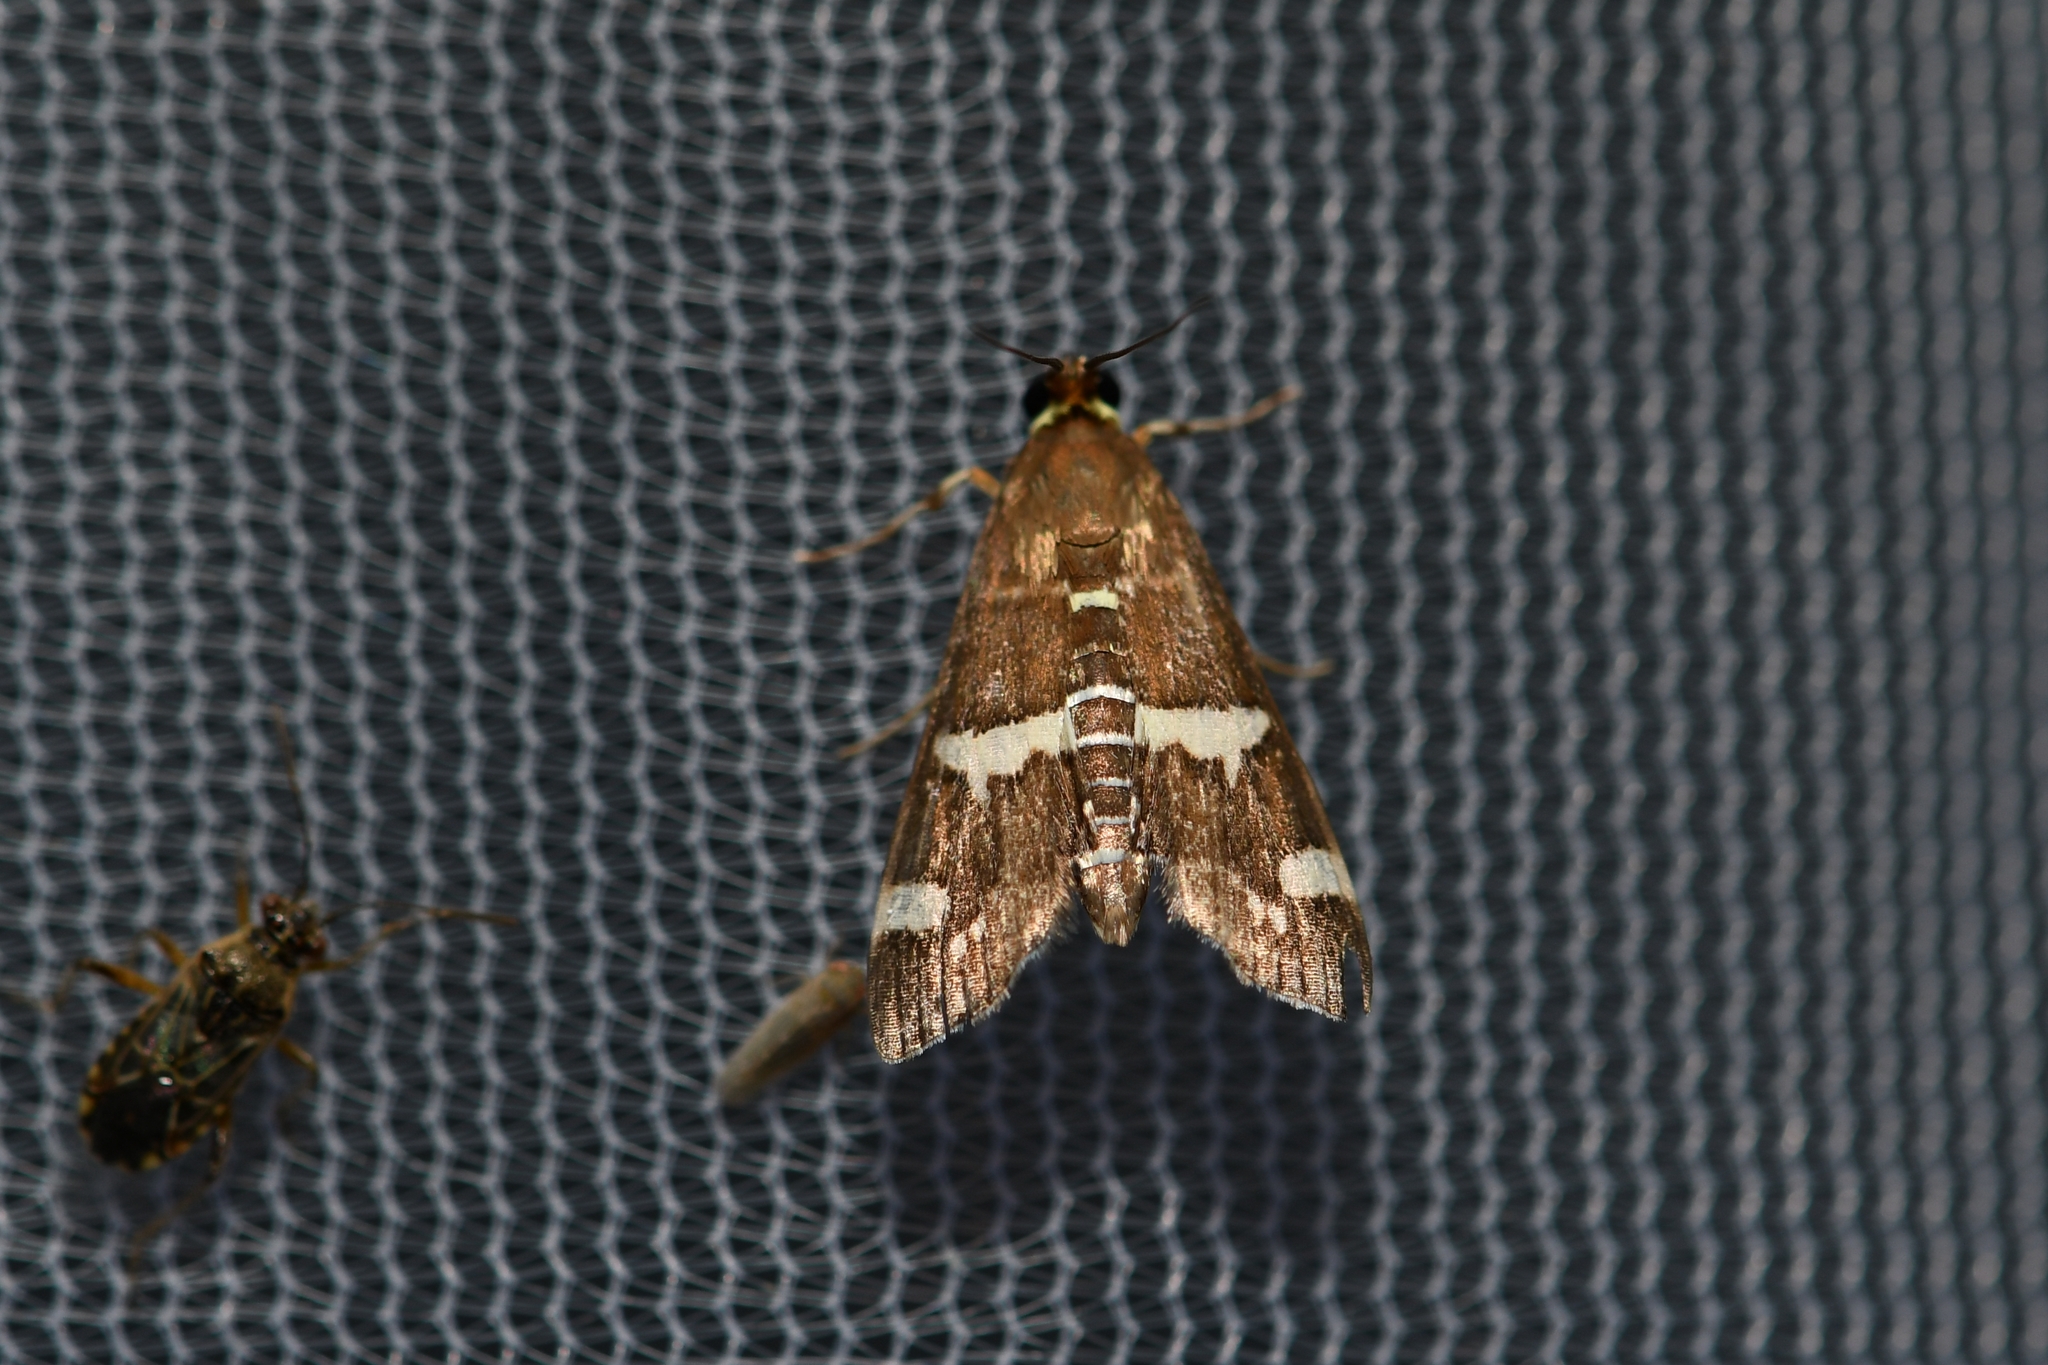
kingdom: Animalia
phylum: Arthropoda
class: Insecta
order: Lepidoptera
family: Crambidae
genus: Spoladea
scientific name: Spoladea recurvalis
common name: Beet webworm moth
